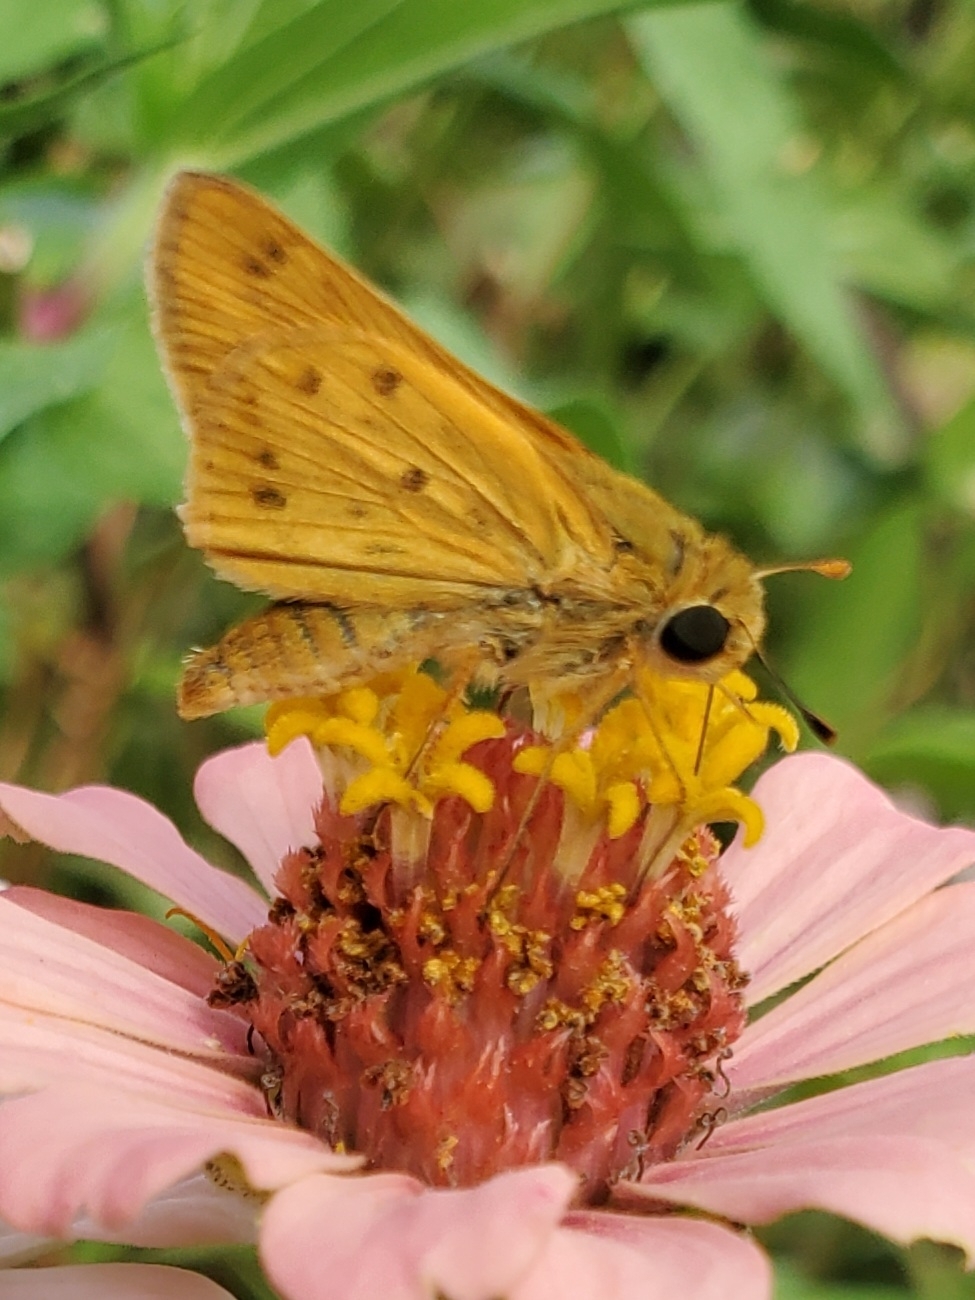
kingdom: Animalia
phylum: Arthropoda
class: Insecta
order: Lepidoptera
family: Hesperiidae
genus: Hylephila
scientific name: Hylephila phyleus
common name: Fiery skipper
